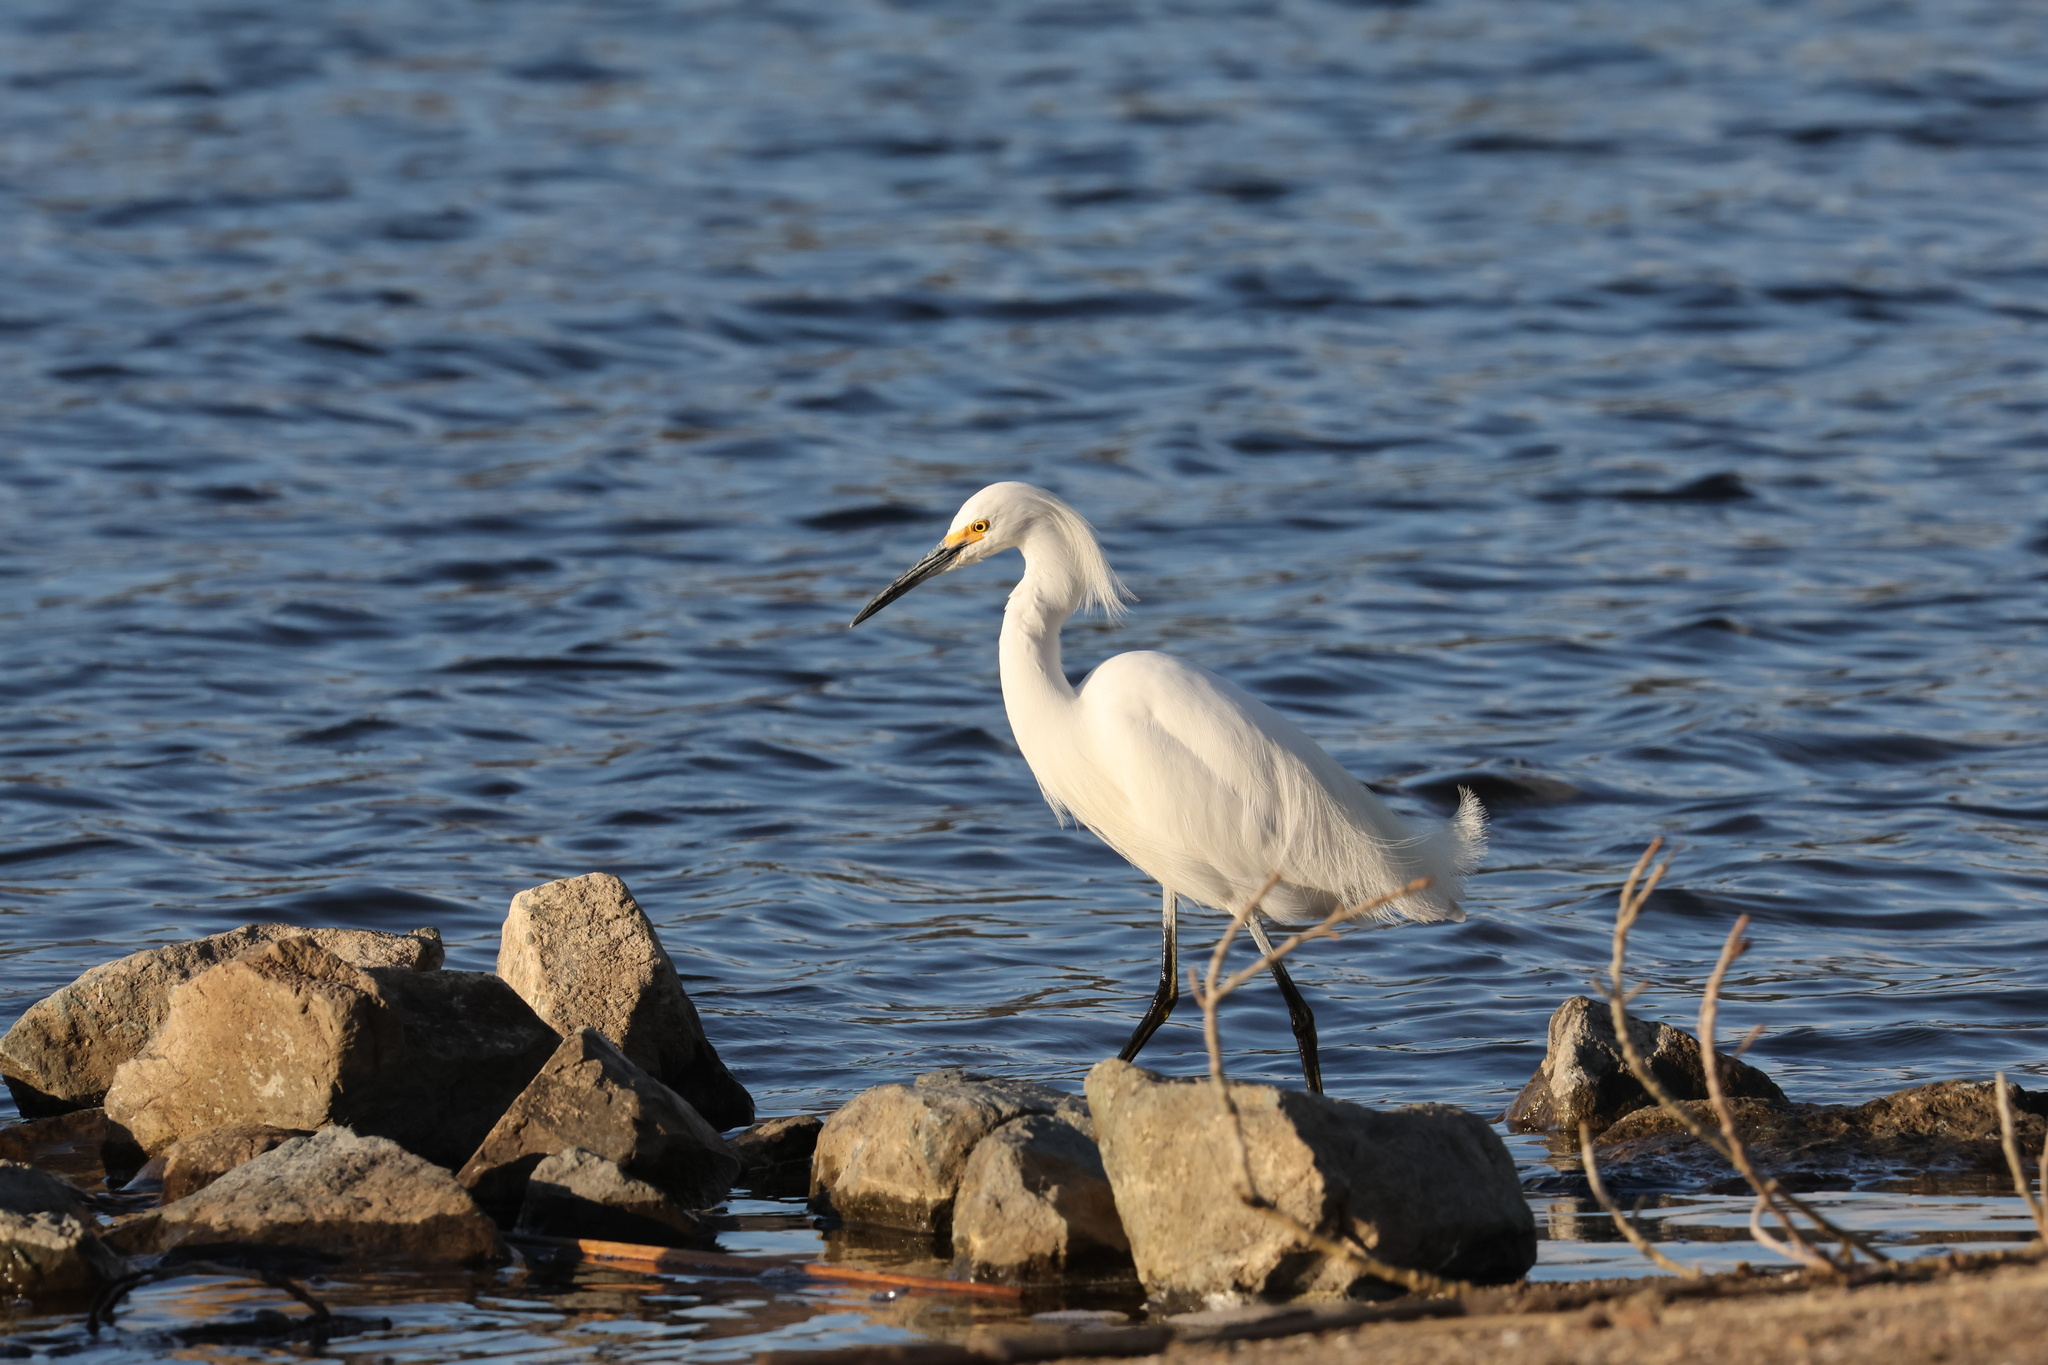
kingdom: Animalia
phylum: Chordata
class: Aves
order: Pelecaniformes
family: Ardeidae
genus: Egretta
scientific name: Egretta thula
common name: Snowy egret
